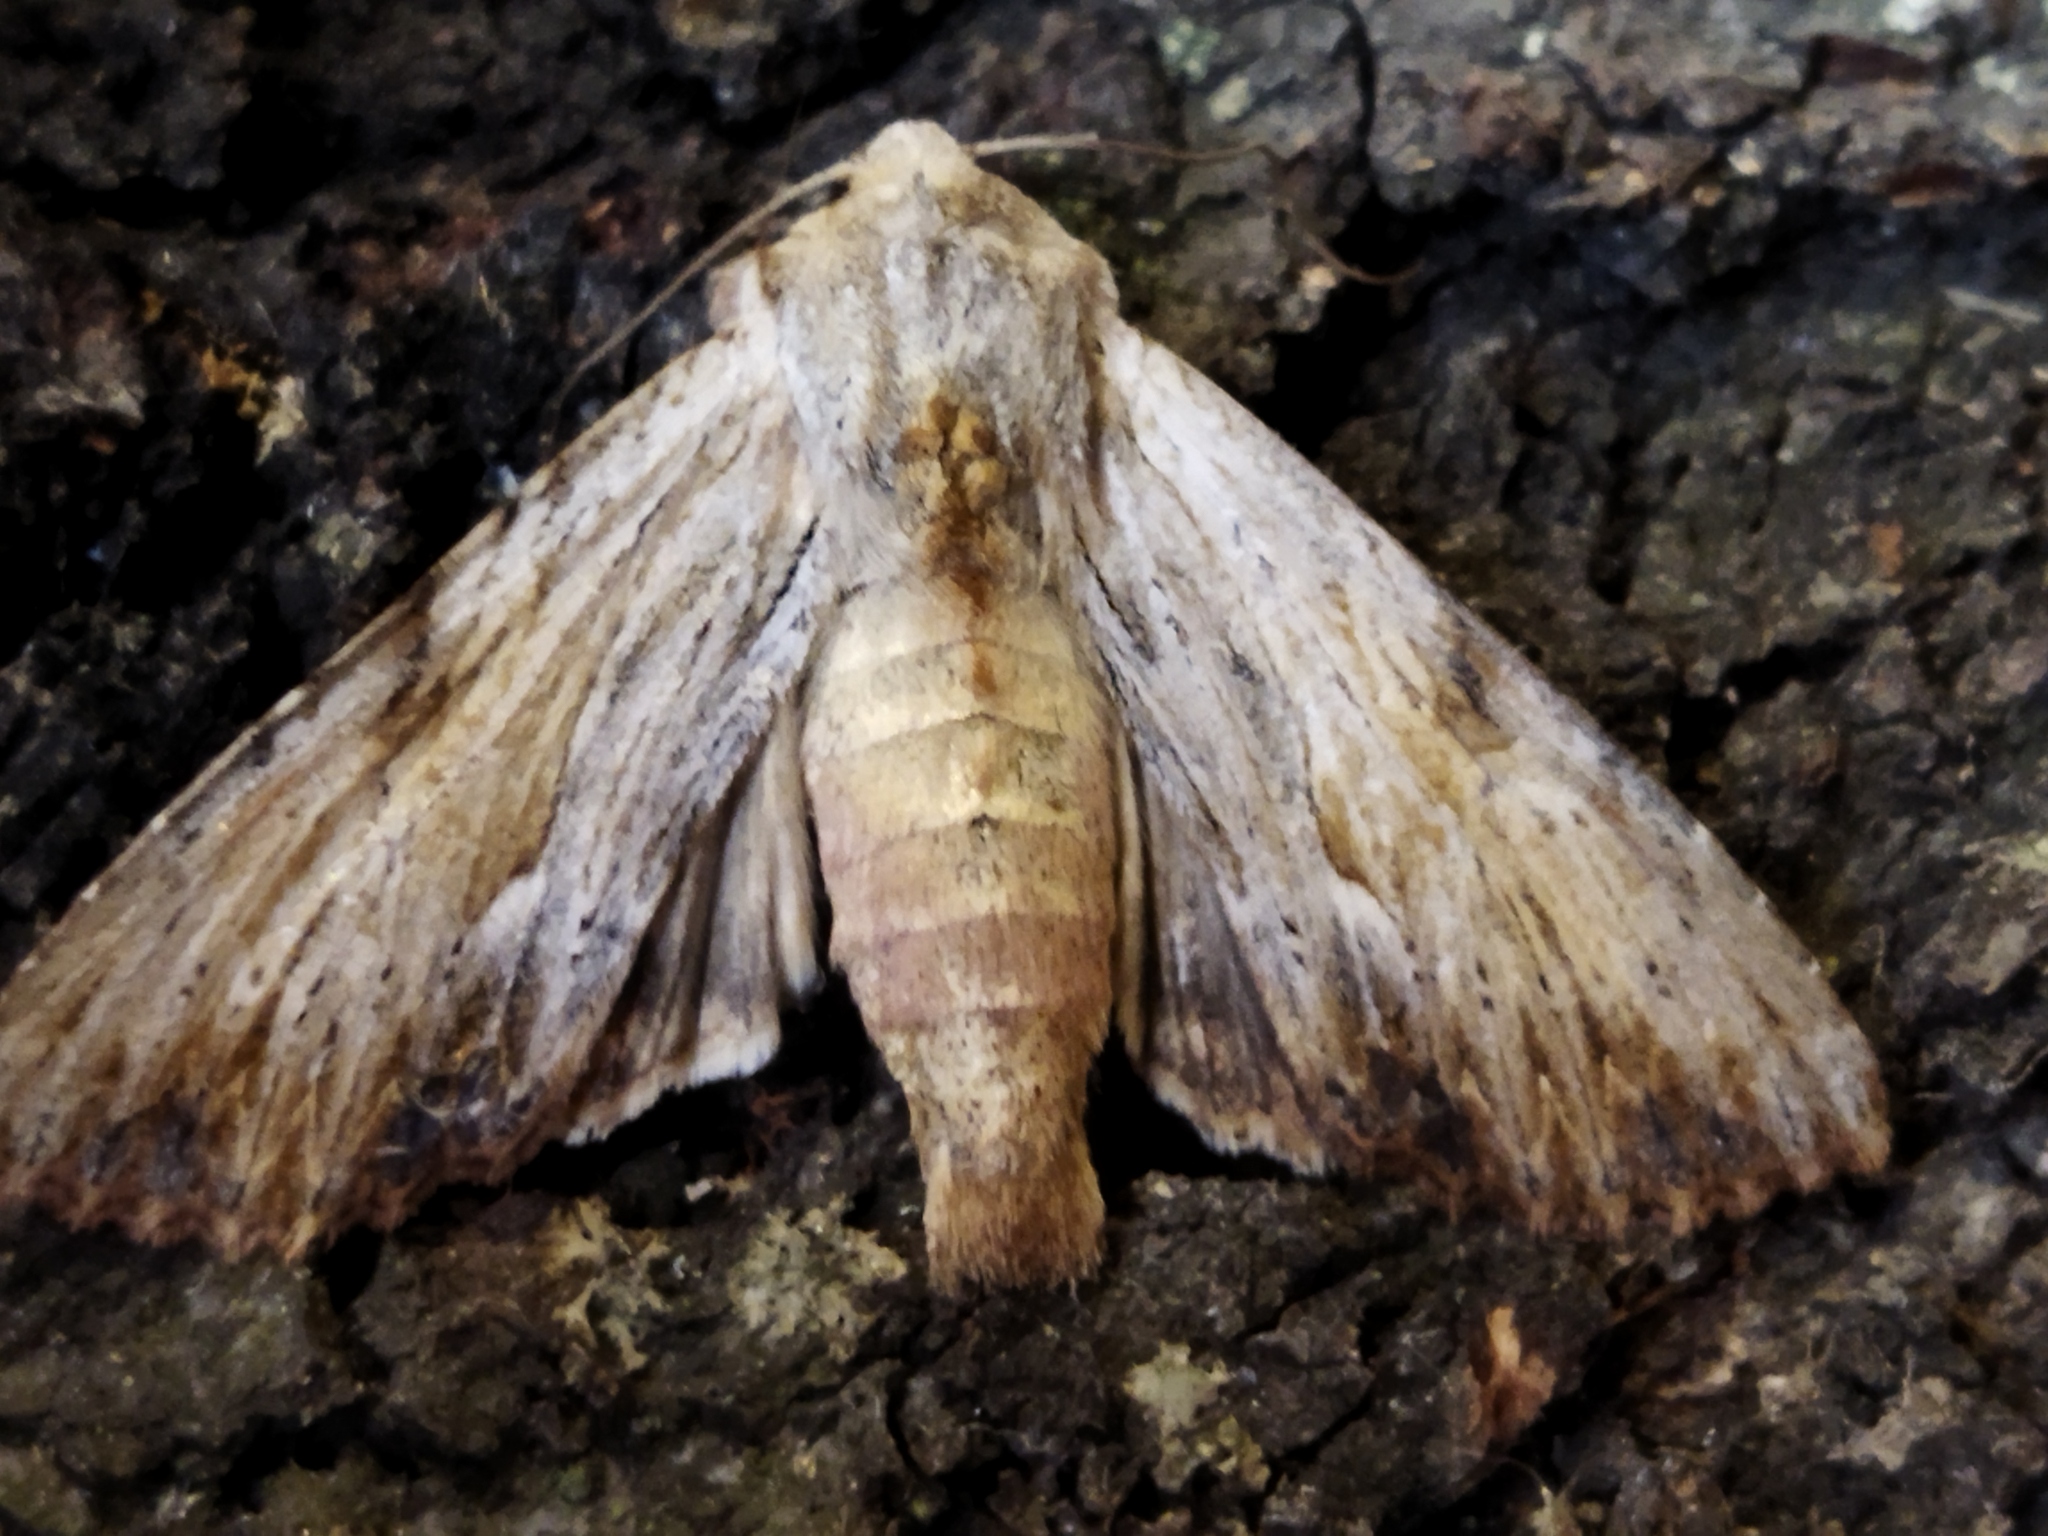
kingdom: Animalia
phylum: Arthropoda
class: Insecta
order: Lepidoptera
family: Noctuidae
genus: Apamea
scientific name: Apamea lithoxylaea
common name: Light arches
